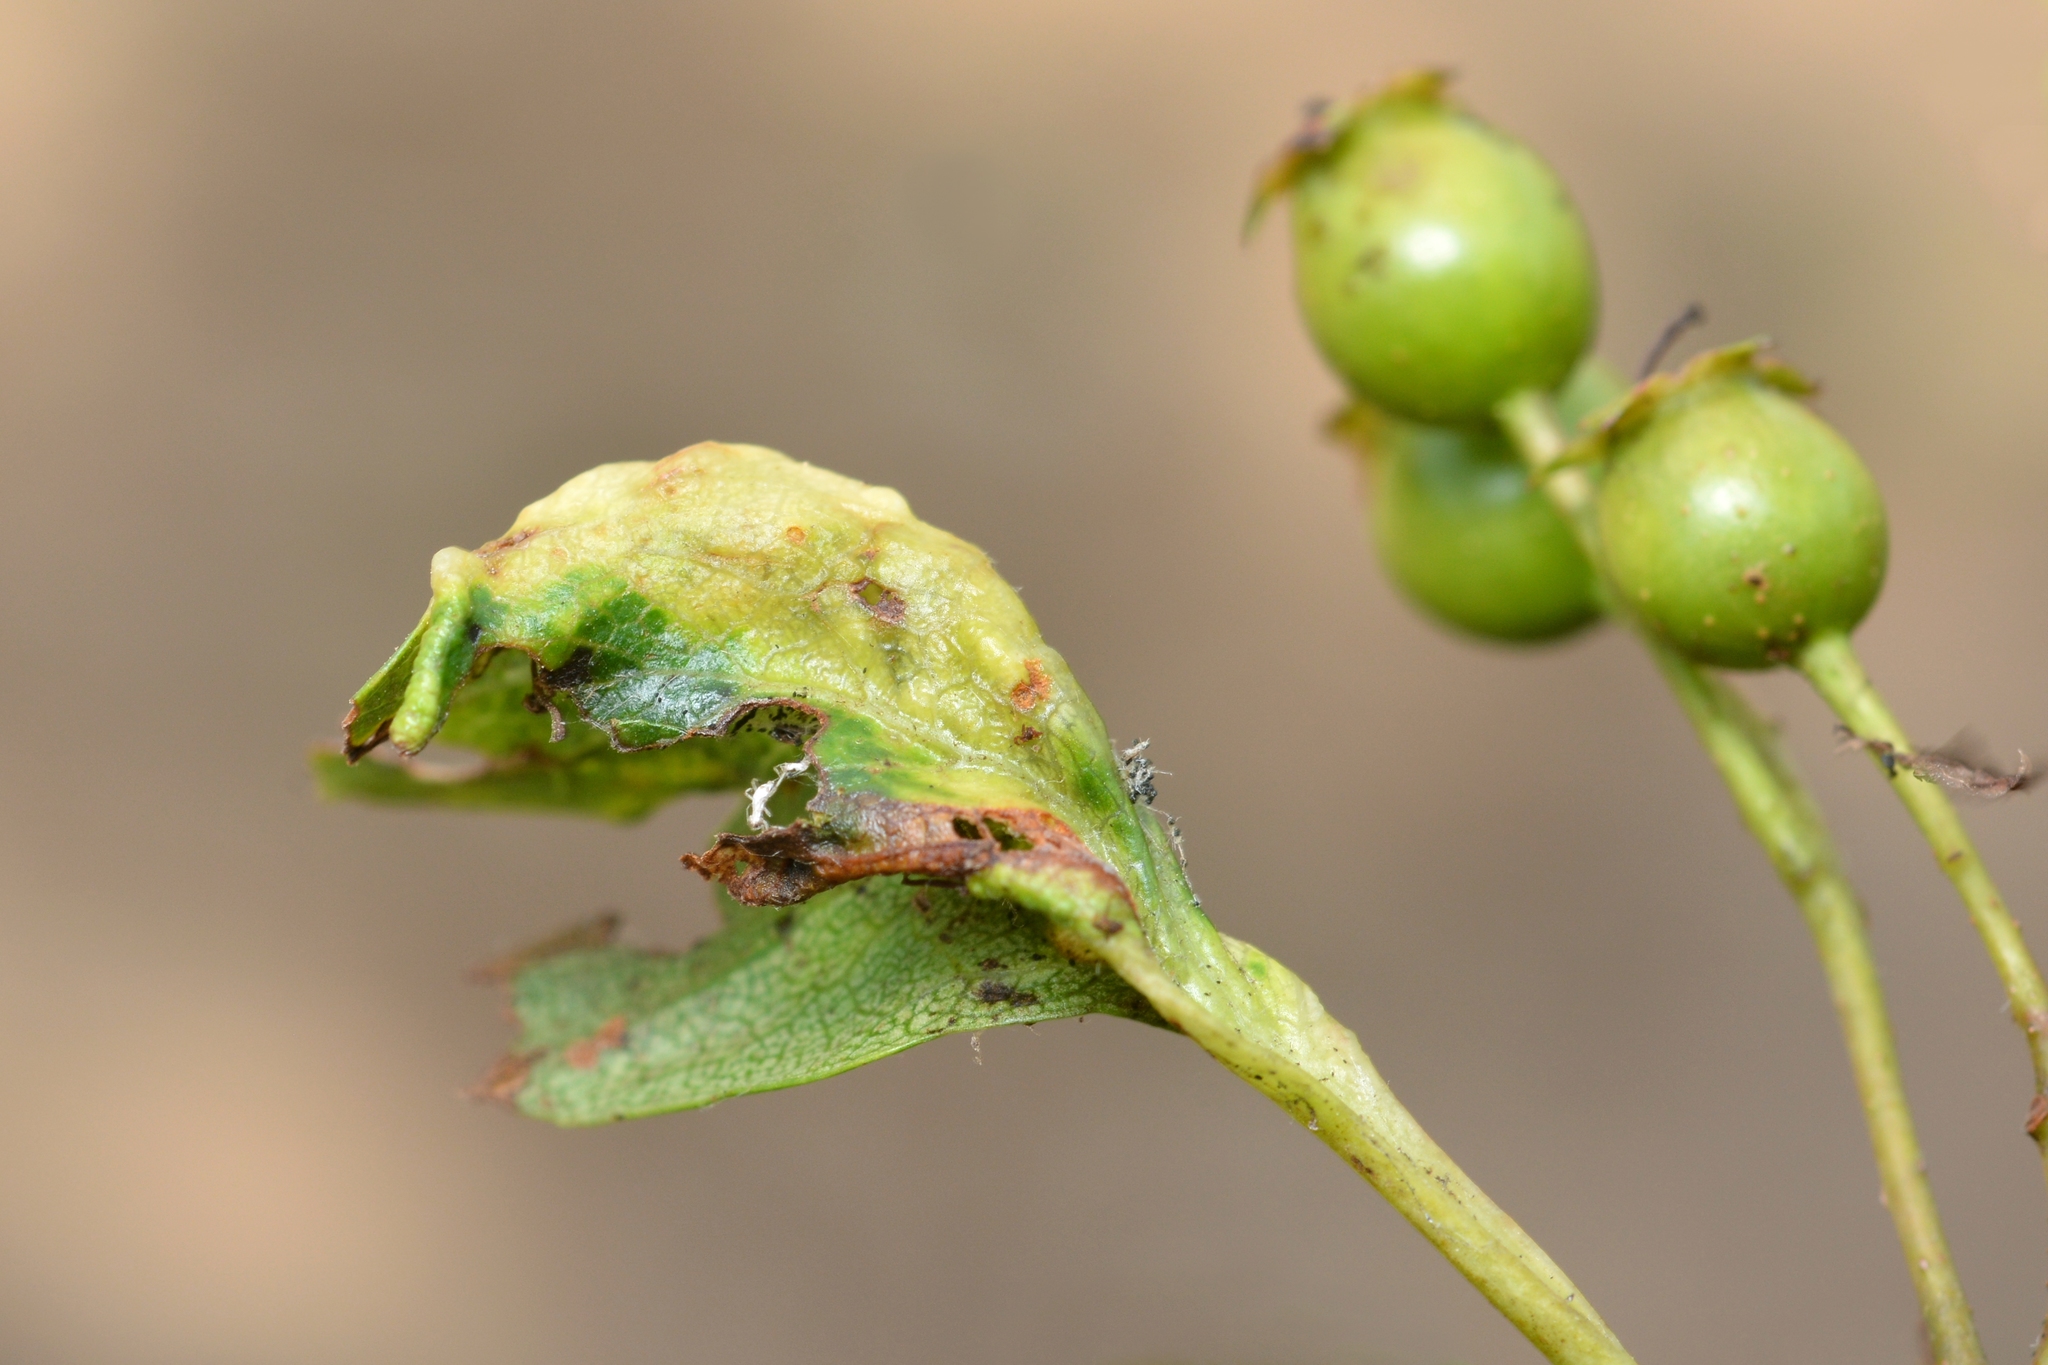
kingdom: Animalia
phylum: Arthropoda
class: Insecta
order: Hemiptera
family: Aphididae
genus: Dysaphis
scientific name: Dysaphis ranunculi
